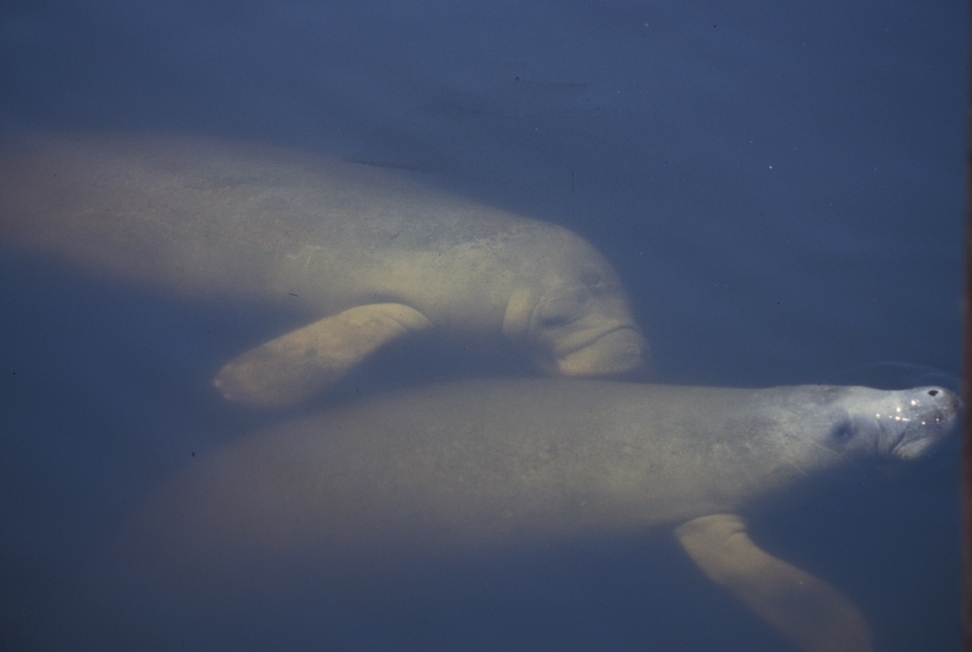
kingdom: Animalia
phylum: Chordata
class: Mammalia
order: Sirenia
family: Trichechidae
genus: Trichechus
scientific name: Trichechus manatus
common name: West indian manatee
